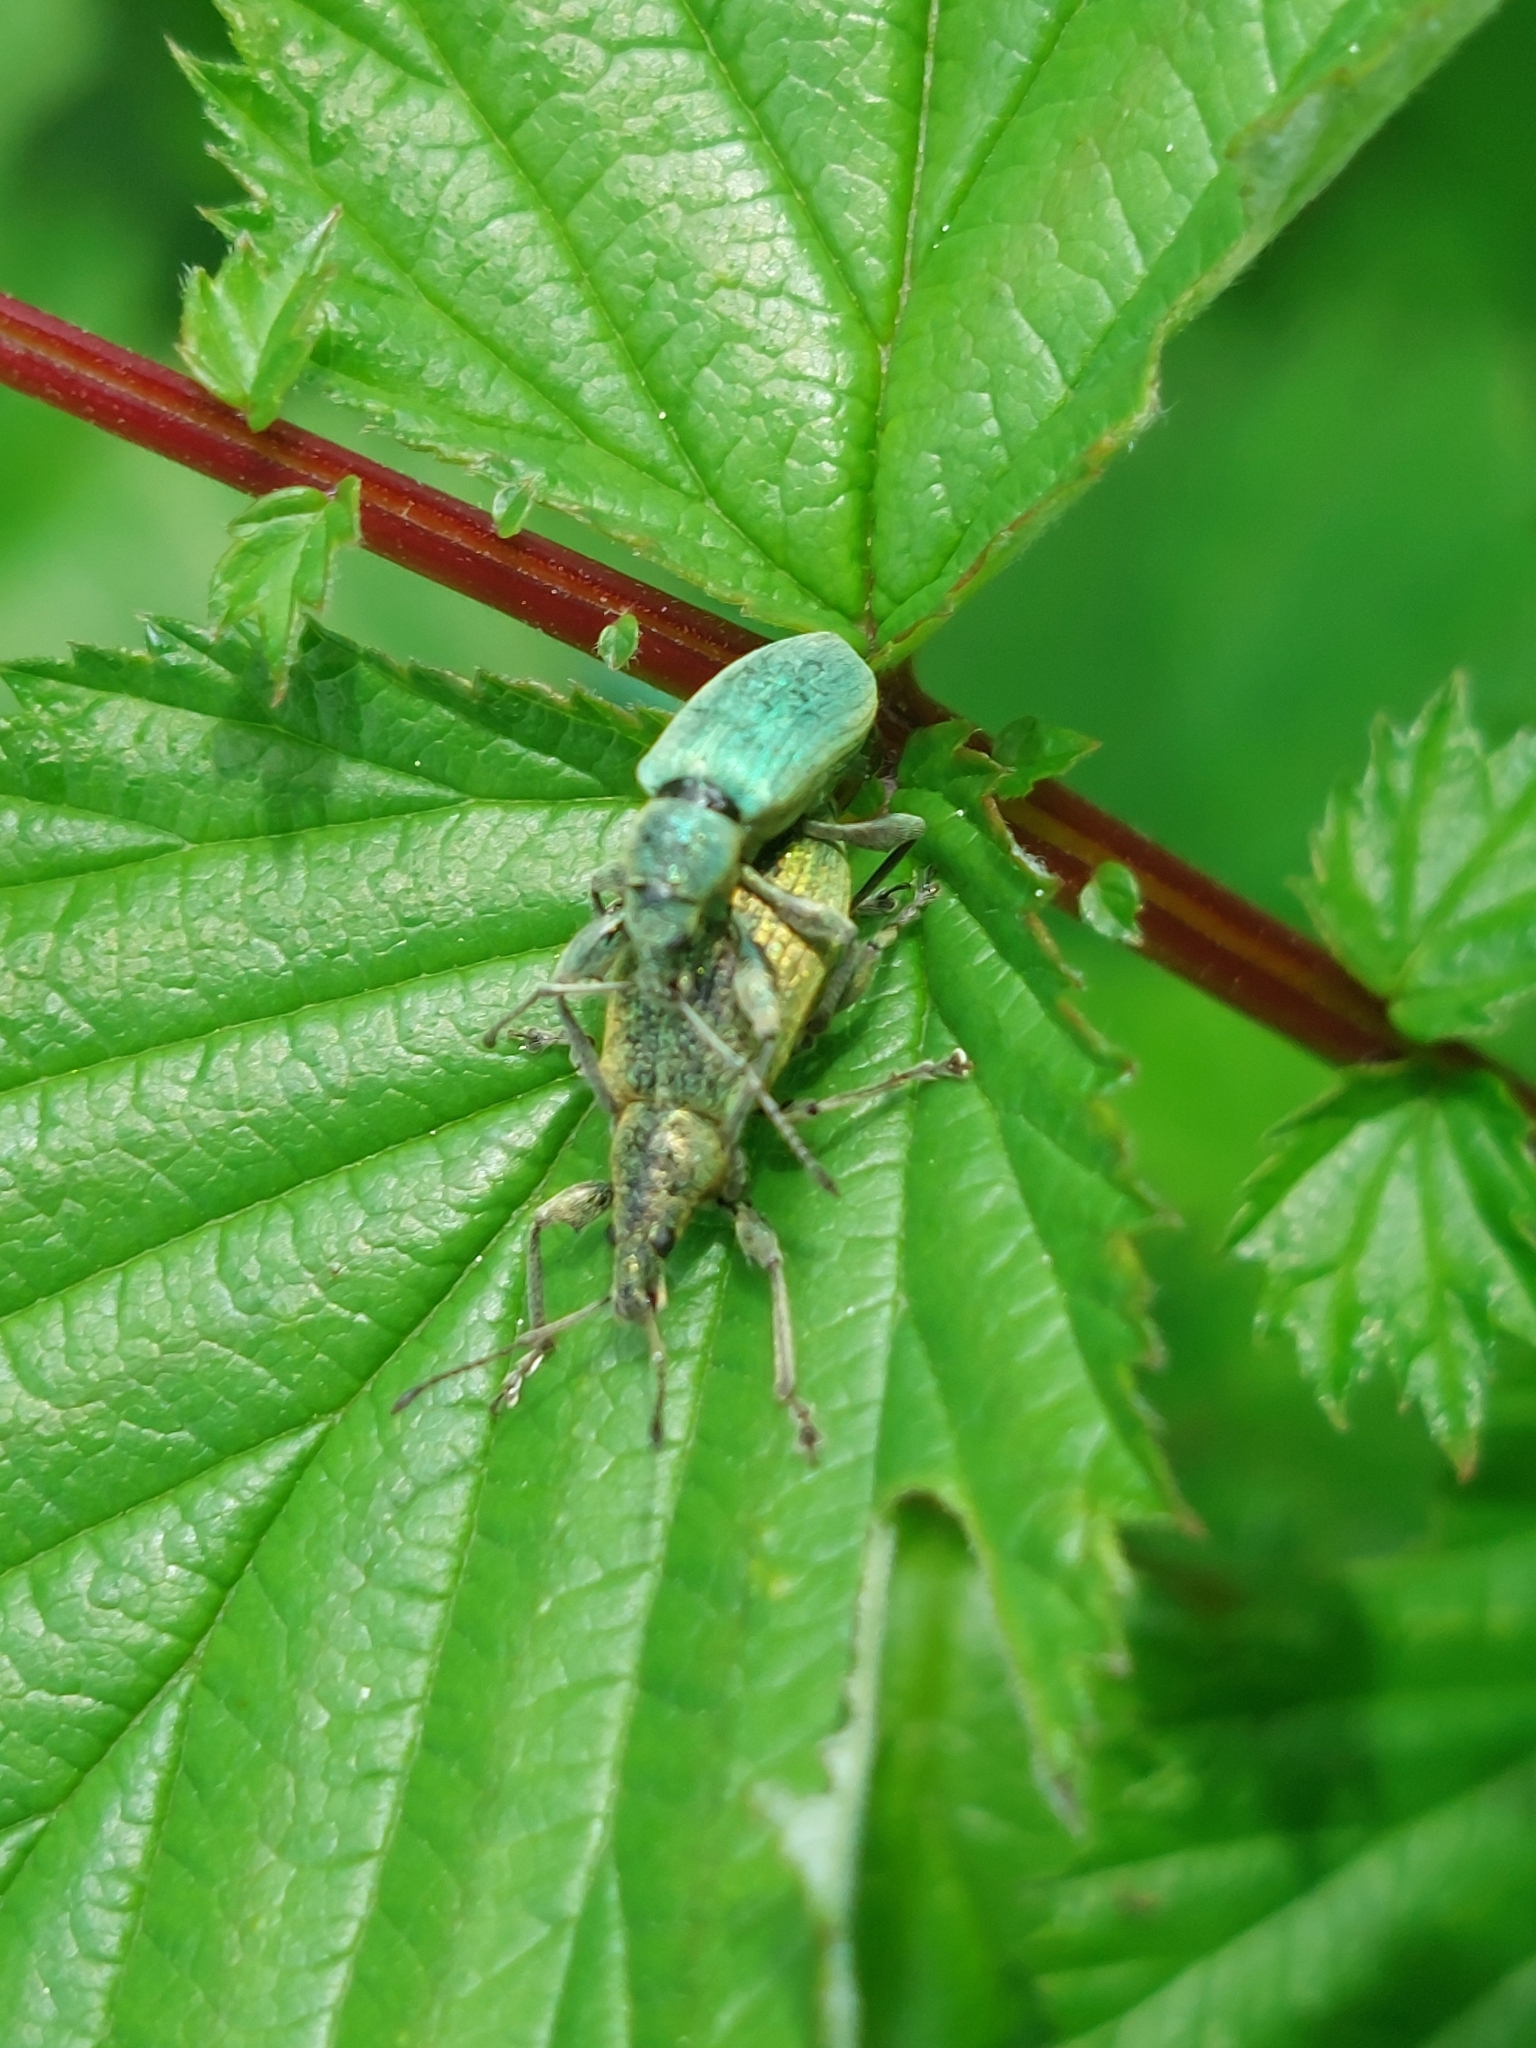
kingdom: Animalia
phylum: Arthropoda
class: Insecta
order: Coleoptera
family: Curculionidae
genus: Phyllobius
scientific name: Phyllobius pomaceus
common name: Green nettle weevil
